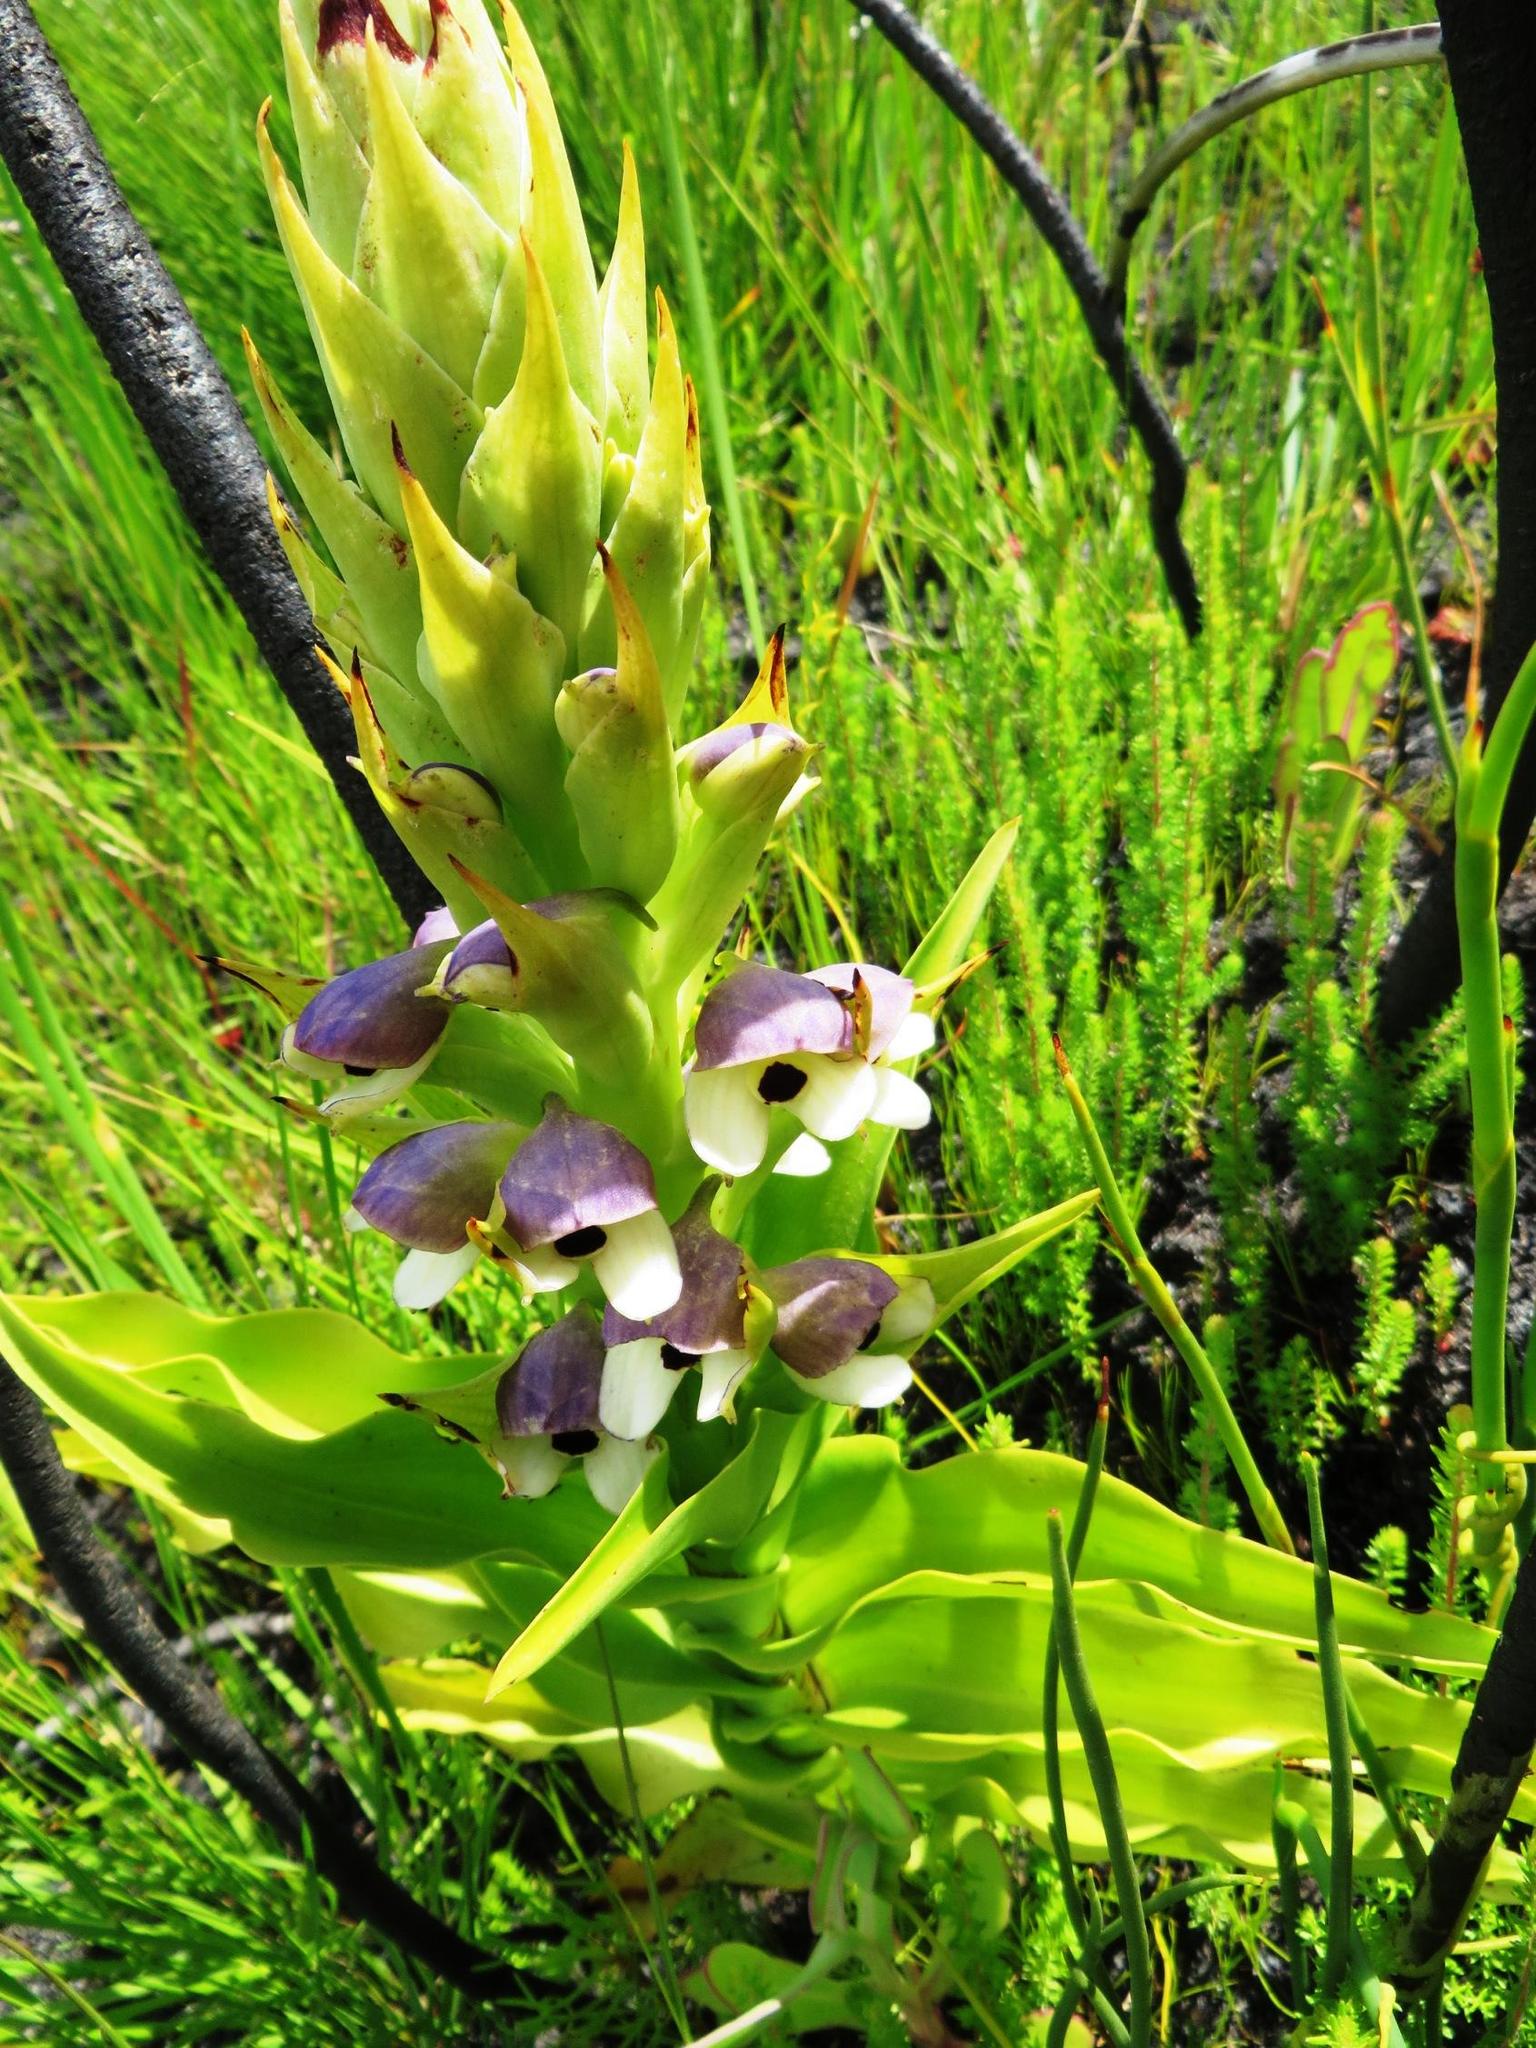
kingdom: Plantae
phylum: Tracheophyta
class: Liliopsida
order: Asparagales
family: Orchidaceae
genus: Disa
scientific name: Disa cornuta
